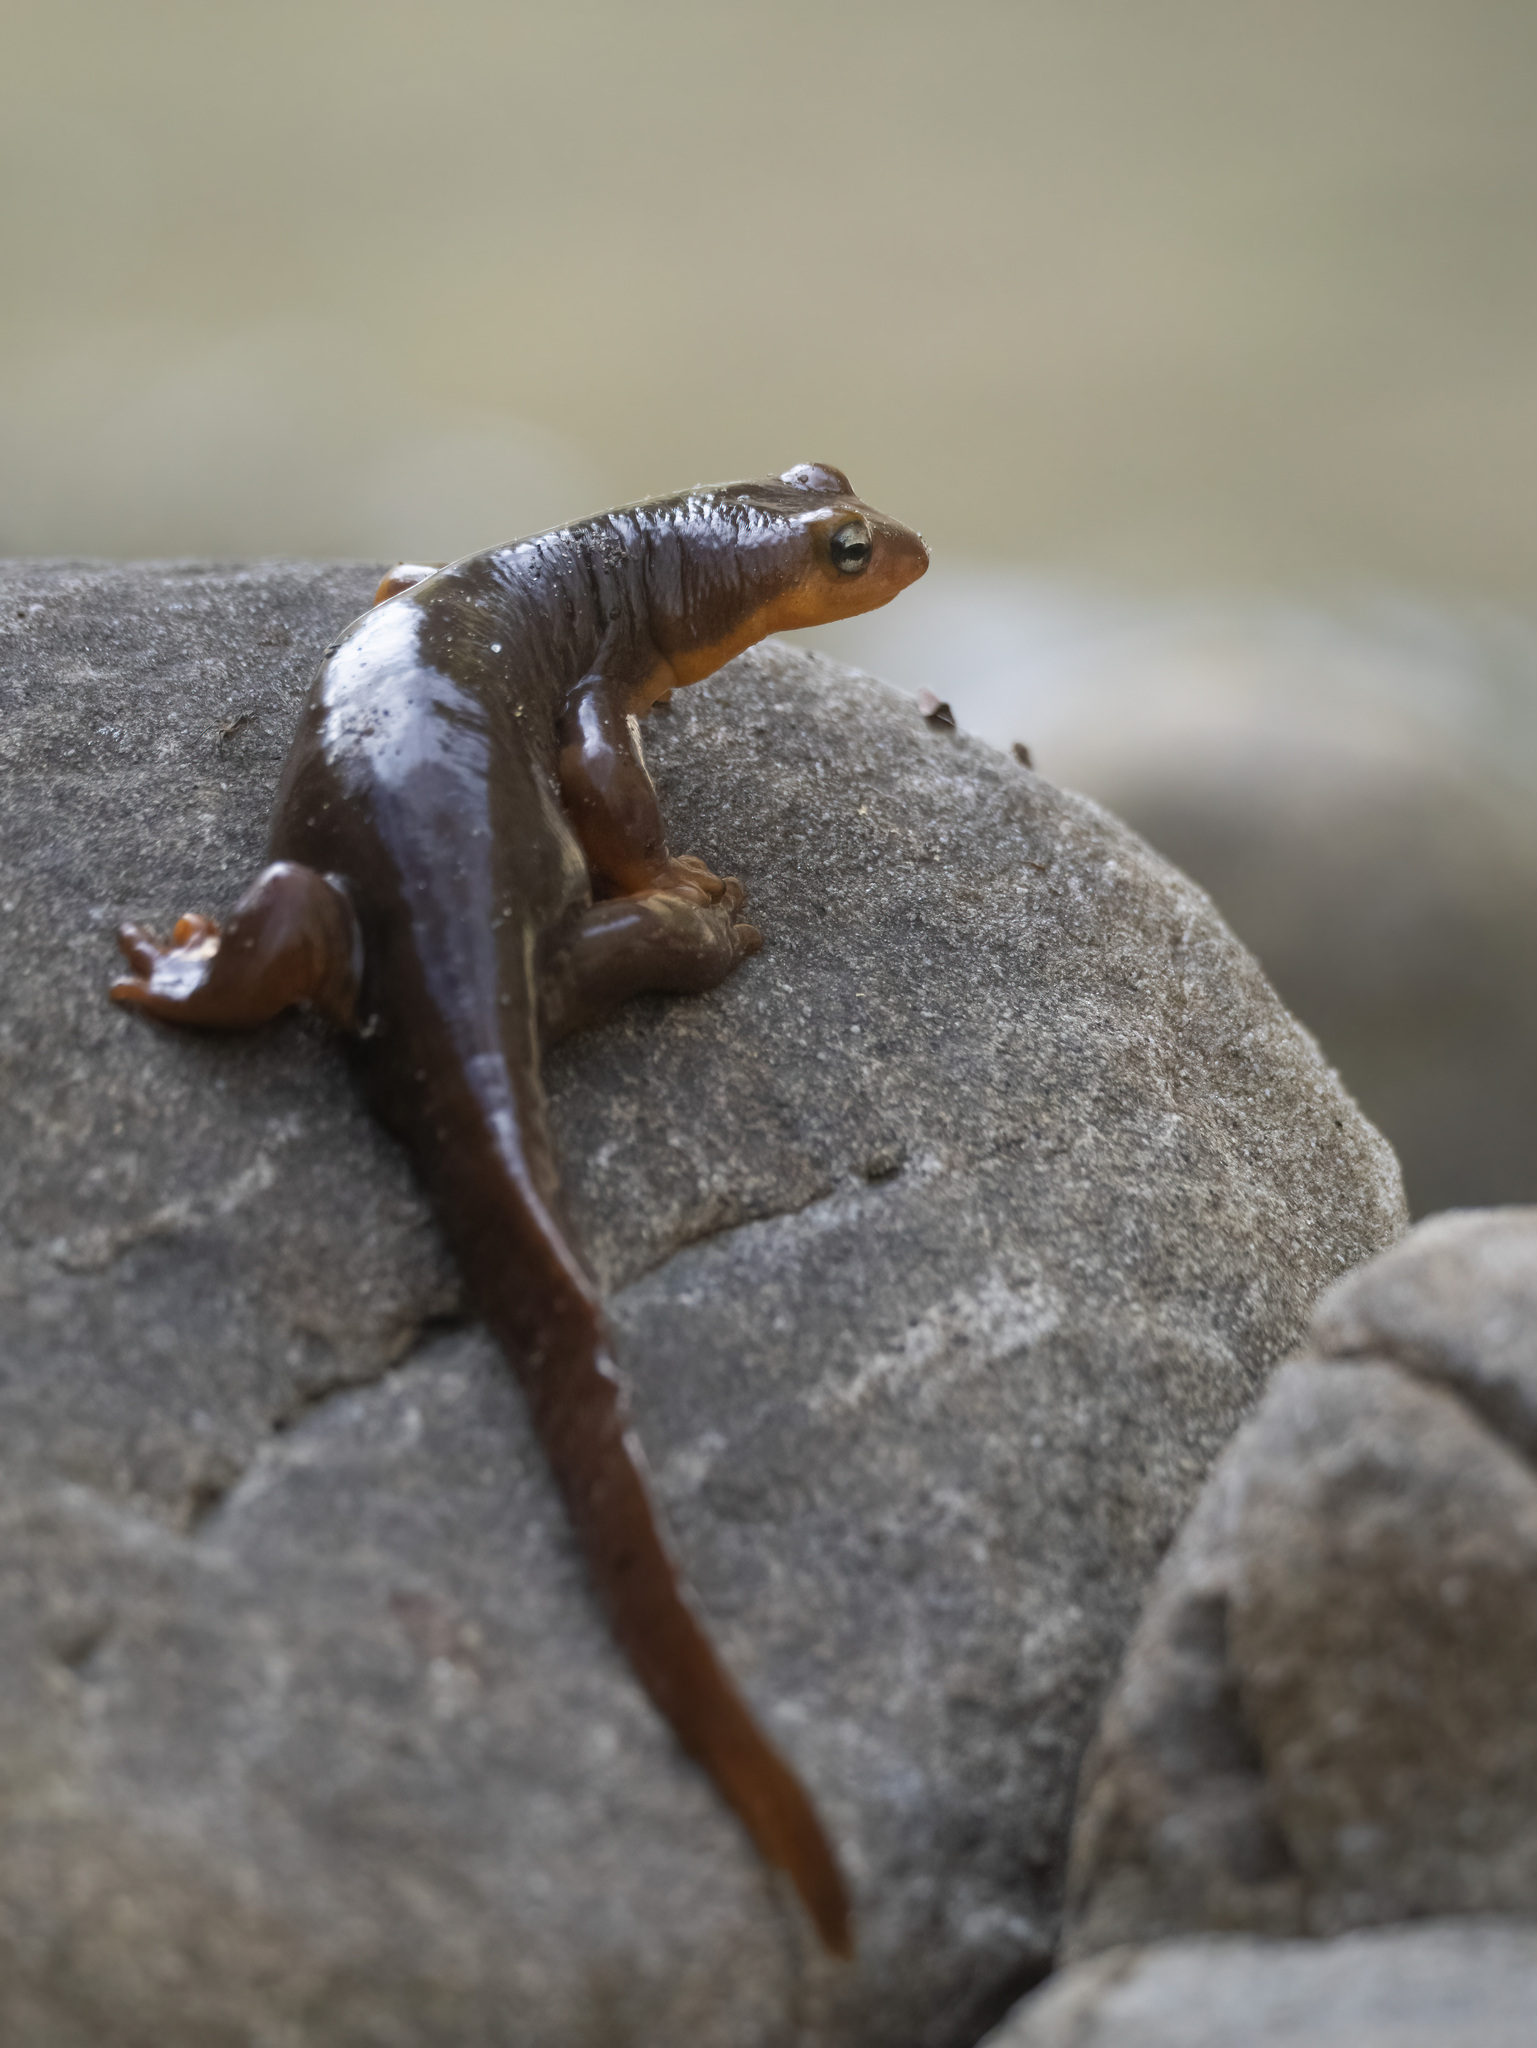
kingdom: Animalia
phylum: Chordata
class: Amphibia
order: Caudata
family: Salamandridae
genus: Taricha
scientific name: Taricha torosa
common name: California newt
